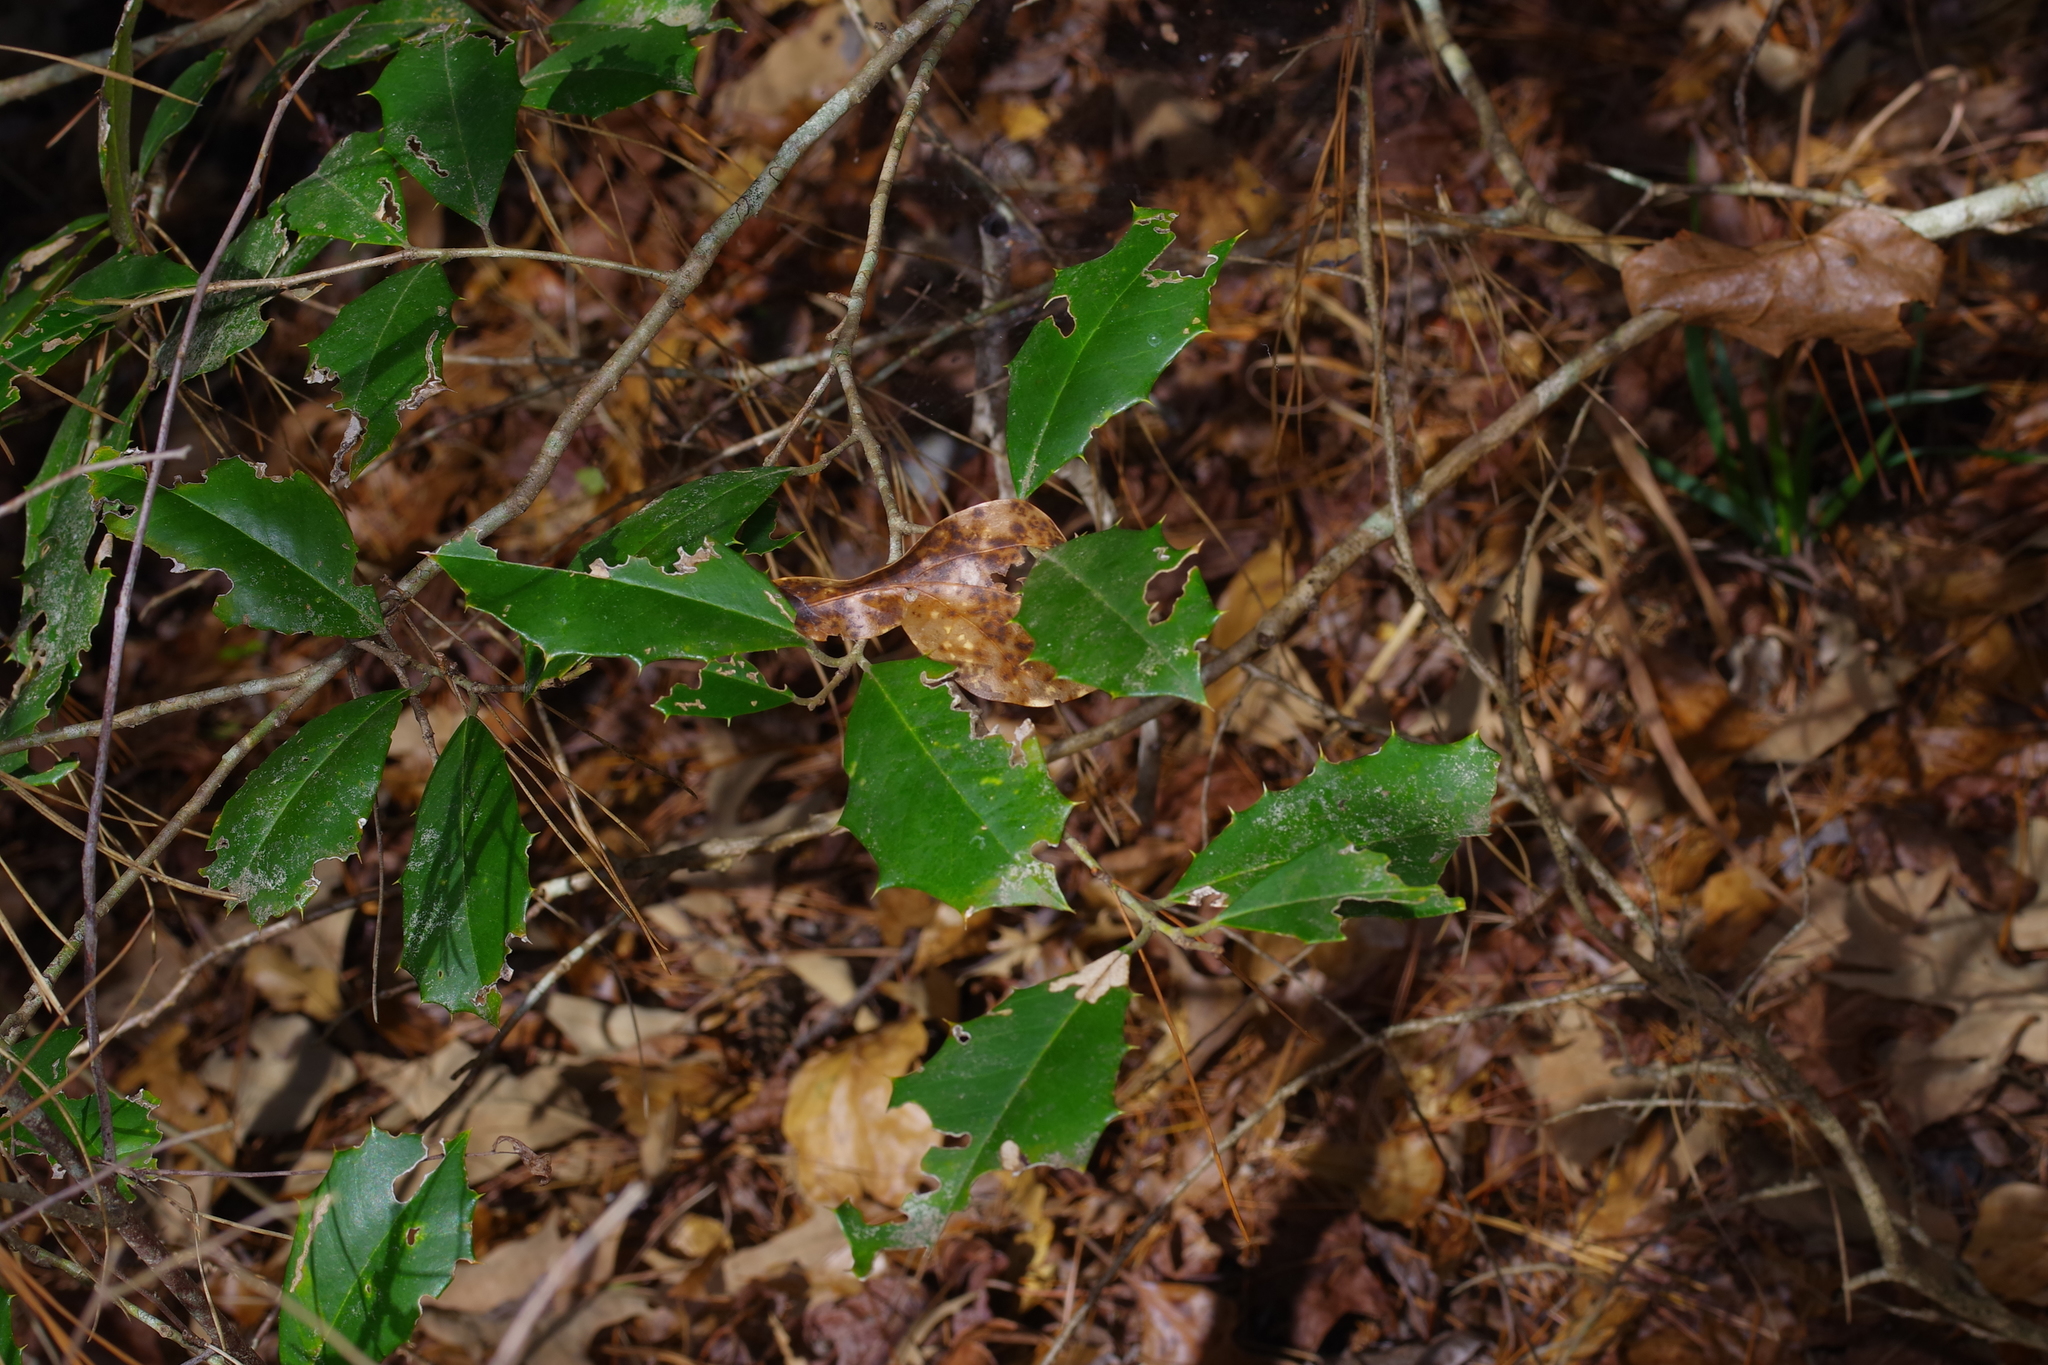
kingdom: Plantae
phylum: Tracheophyta
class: Magnoliopsida
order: Aquifoliales
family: Aquifoliaceae
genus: Ilex
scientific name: Ilex opaca
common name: American holly
